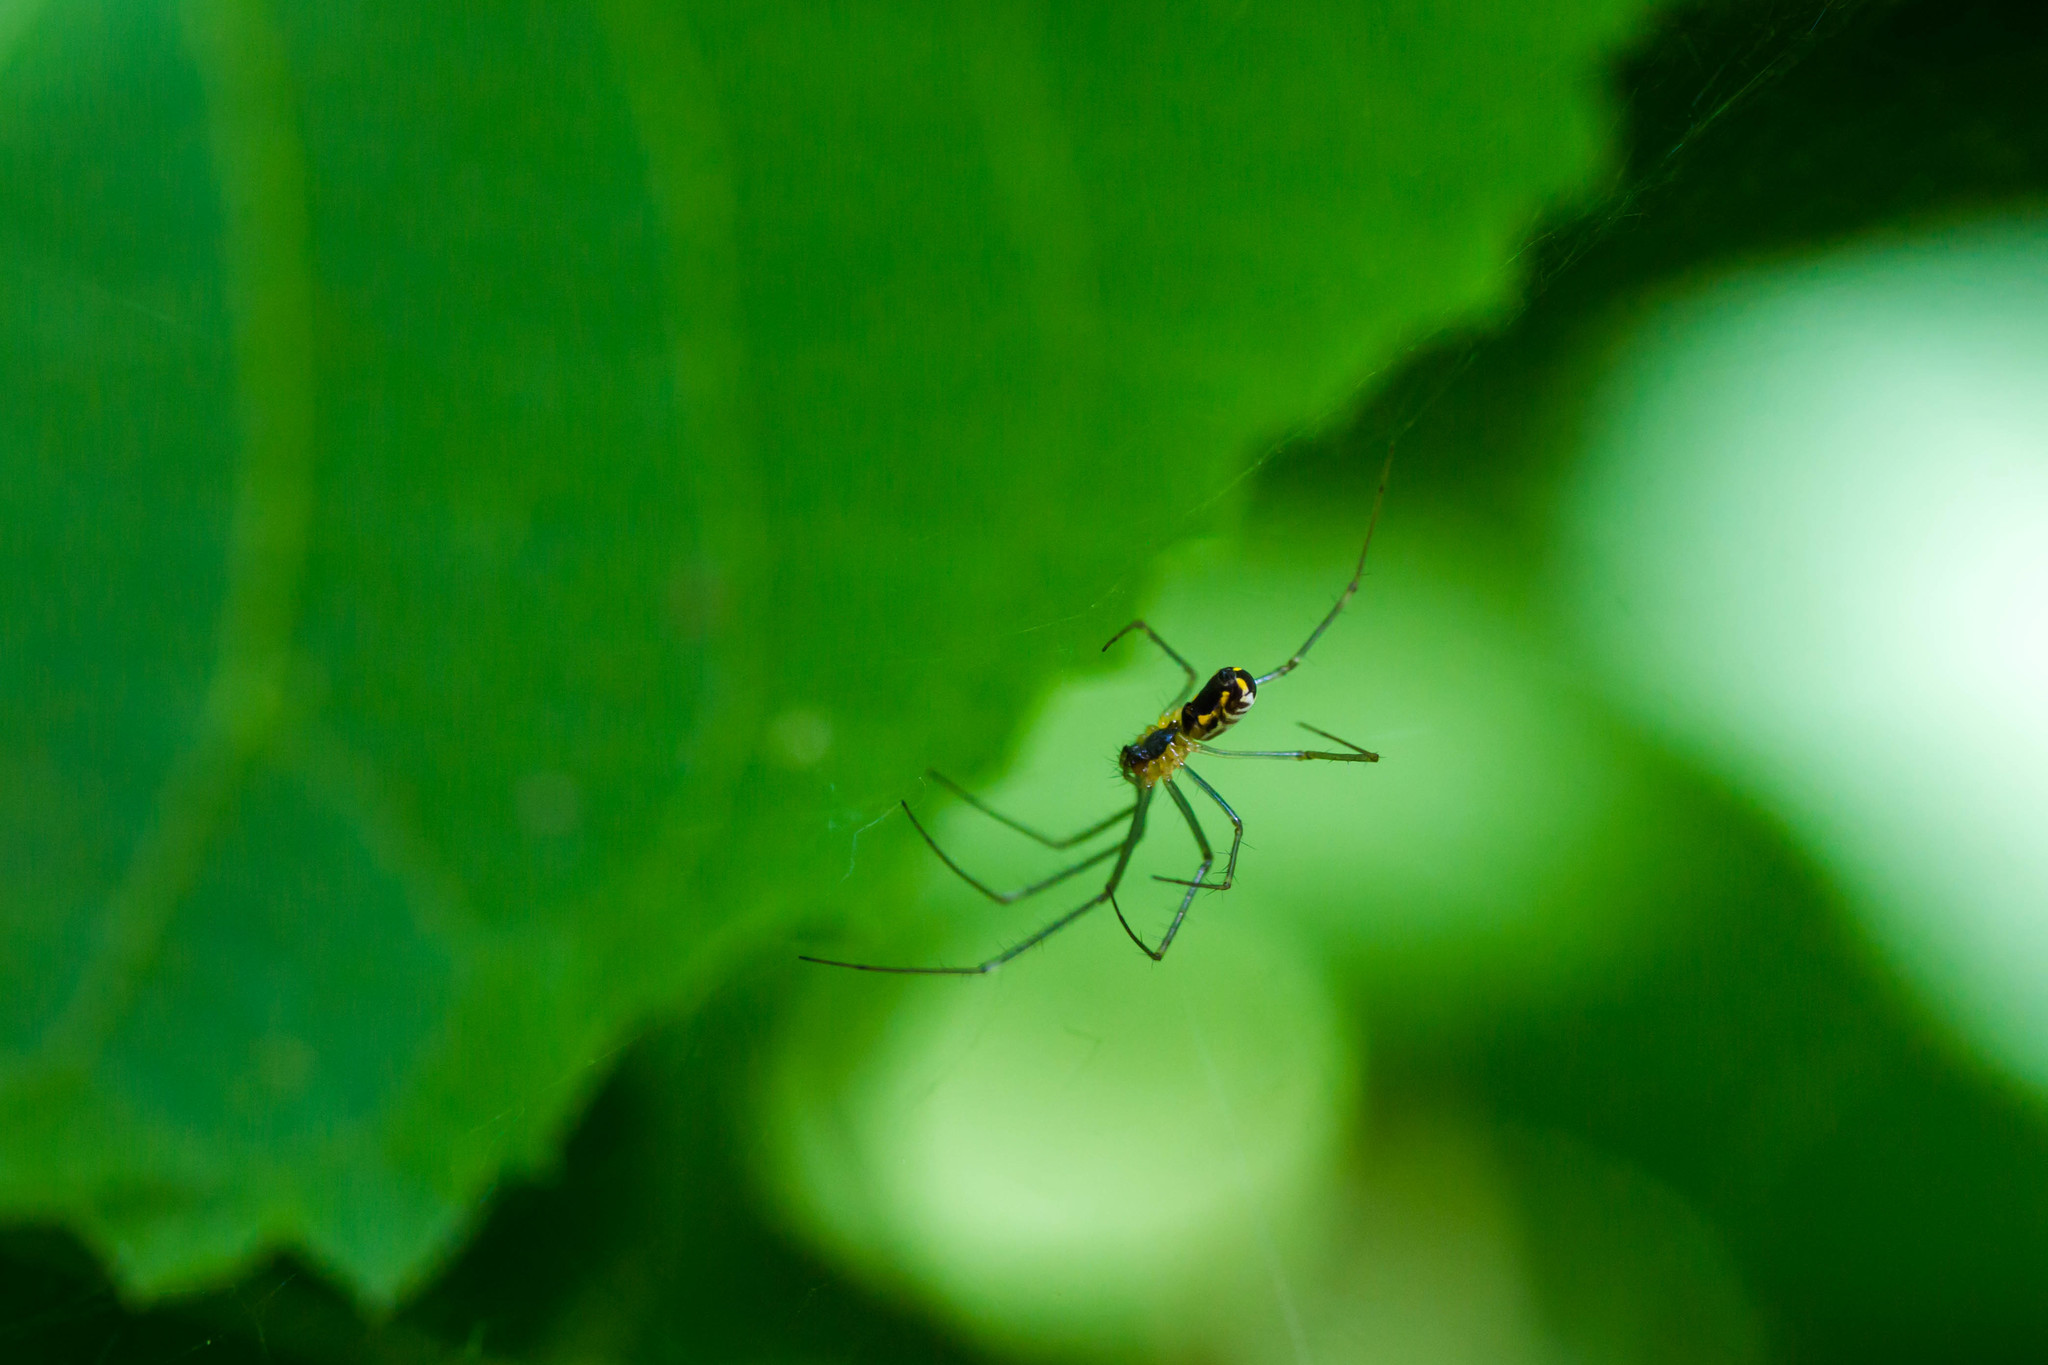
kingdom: Animalia
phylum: Arthropoda
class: Arachnida
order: Araneae
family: Linyphiidae
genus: Neriene
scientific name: Neriene radiata
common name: Filmy dome spider
